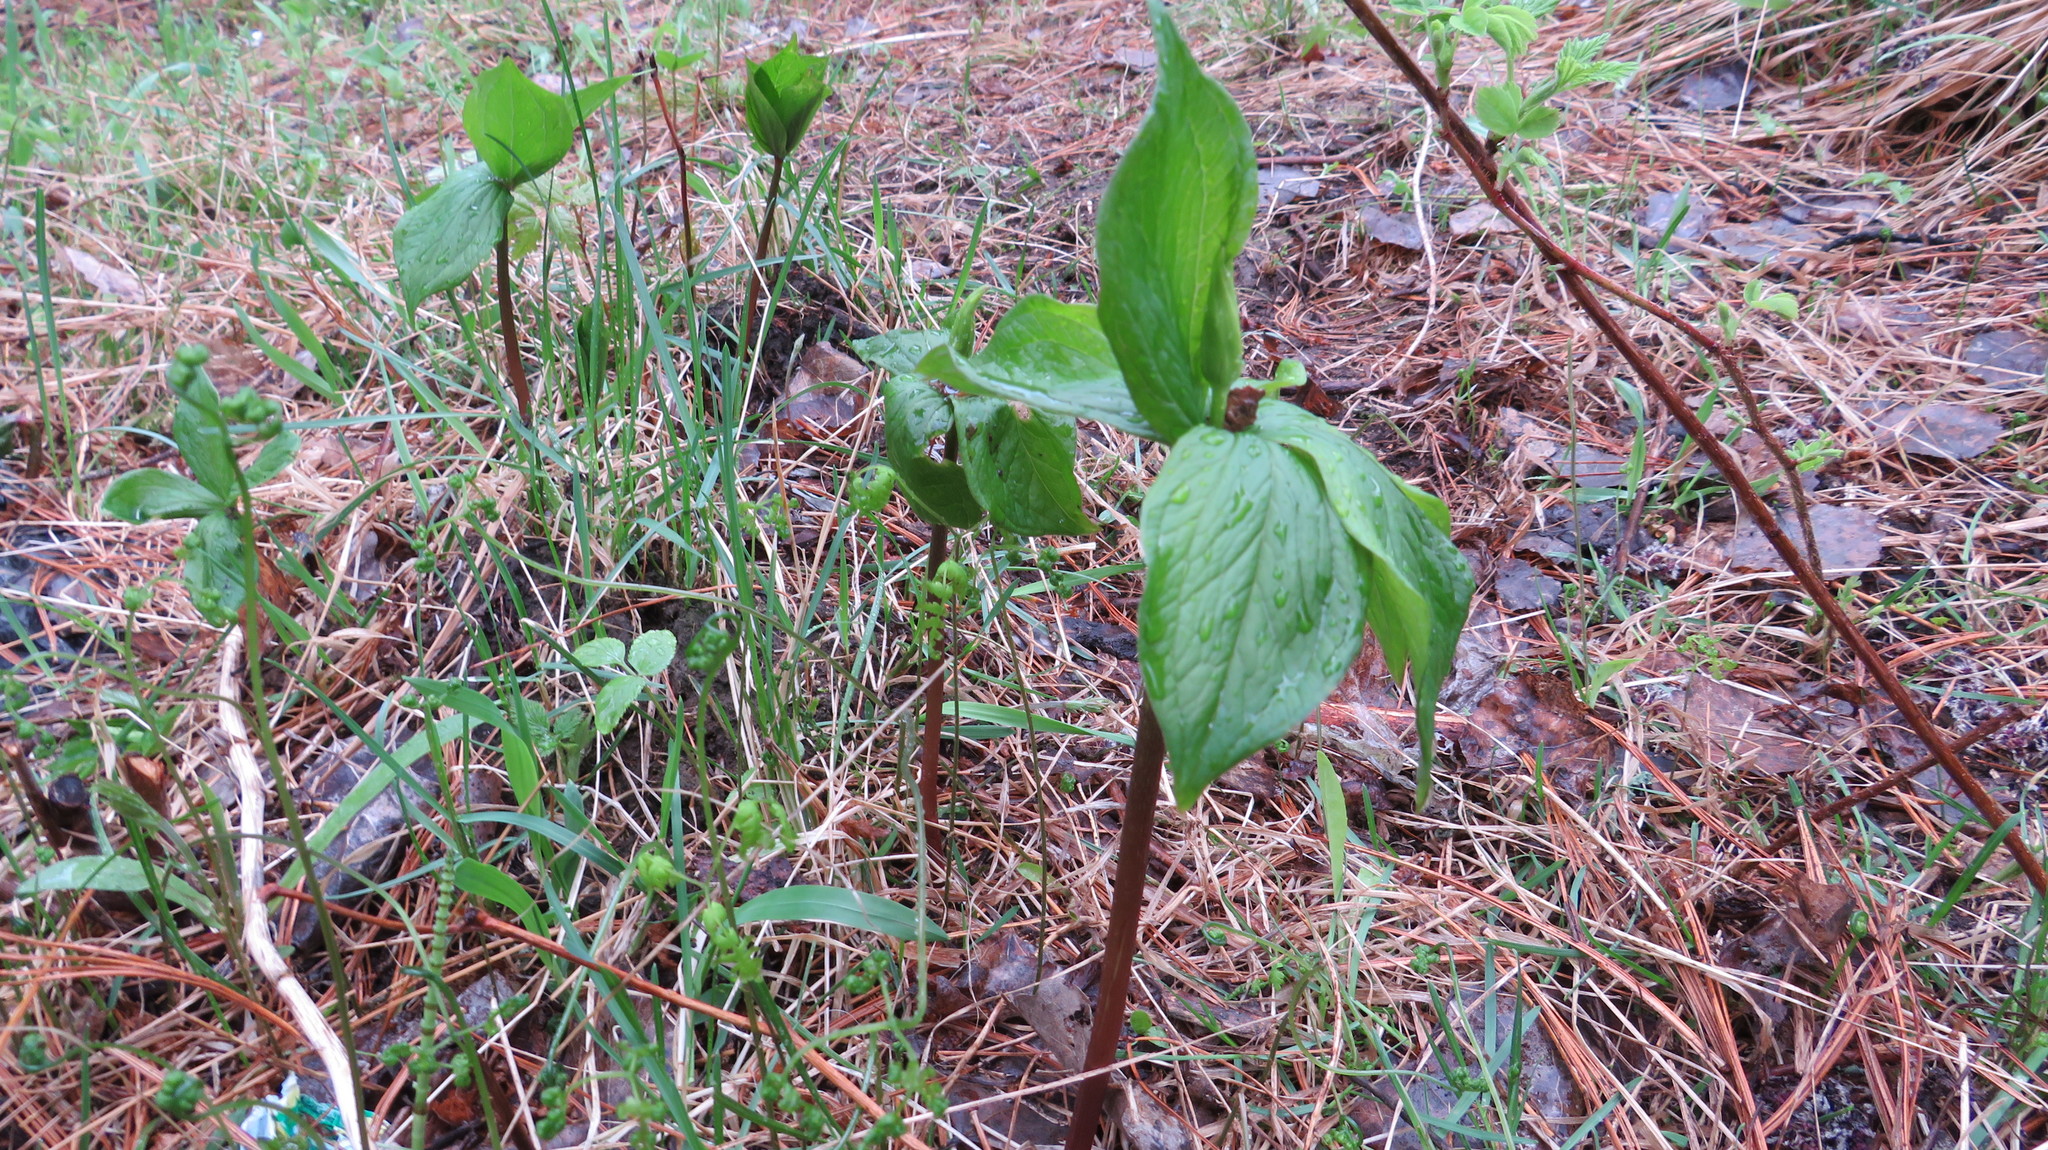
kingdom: Plantae
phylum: Tracheophyta
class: Liliopsida
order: Liliales
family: Melanthiaceae
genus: Paris
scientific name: Paris quadrifolia
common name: Herb-paris
